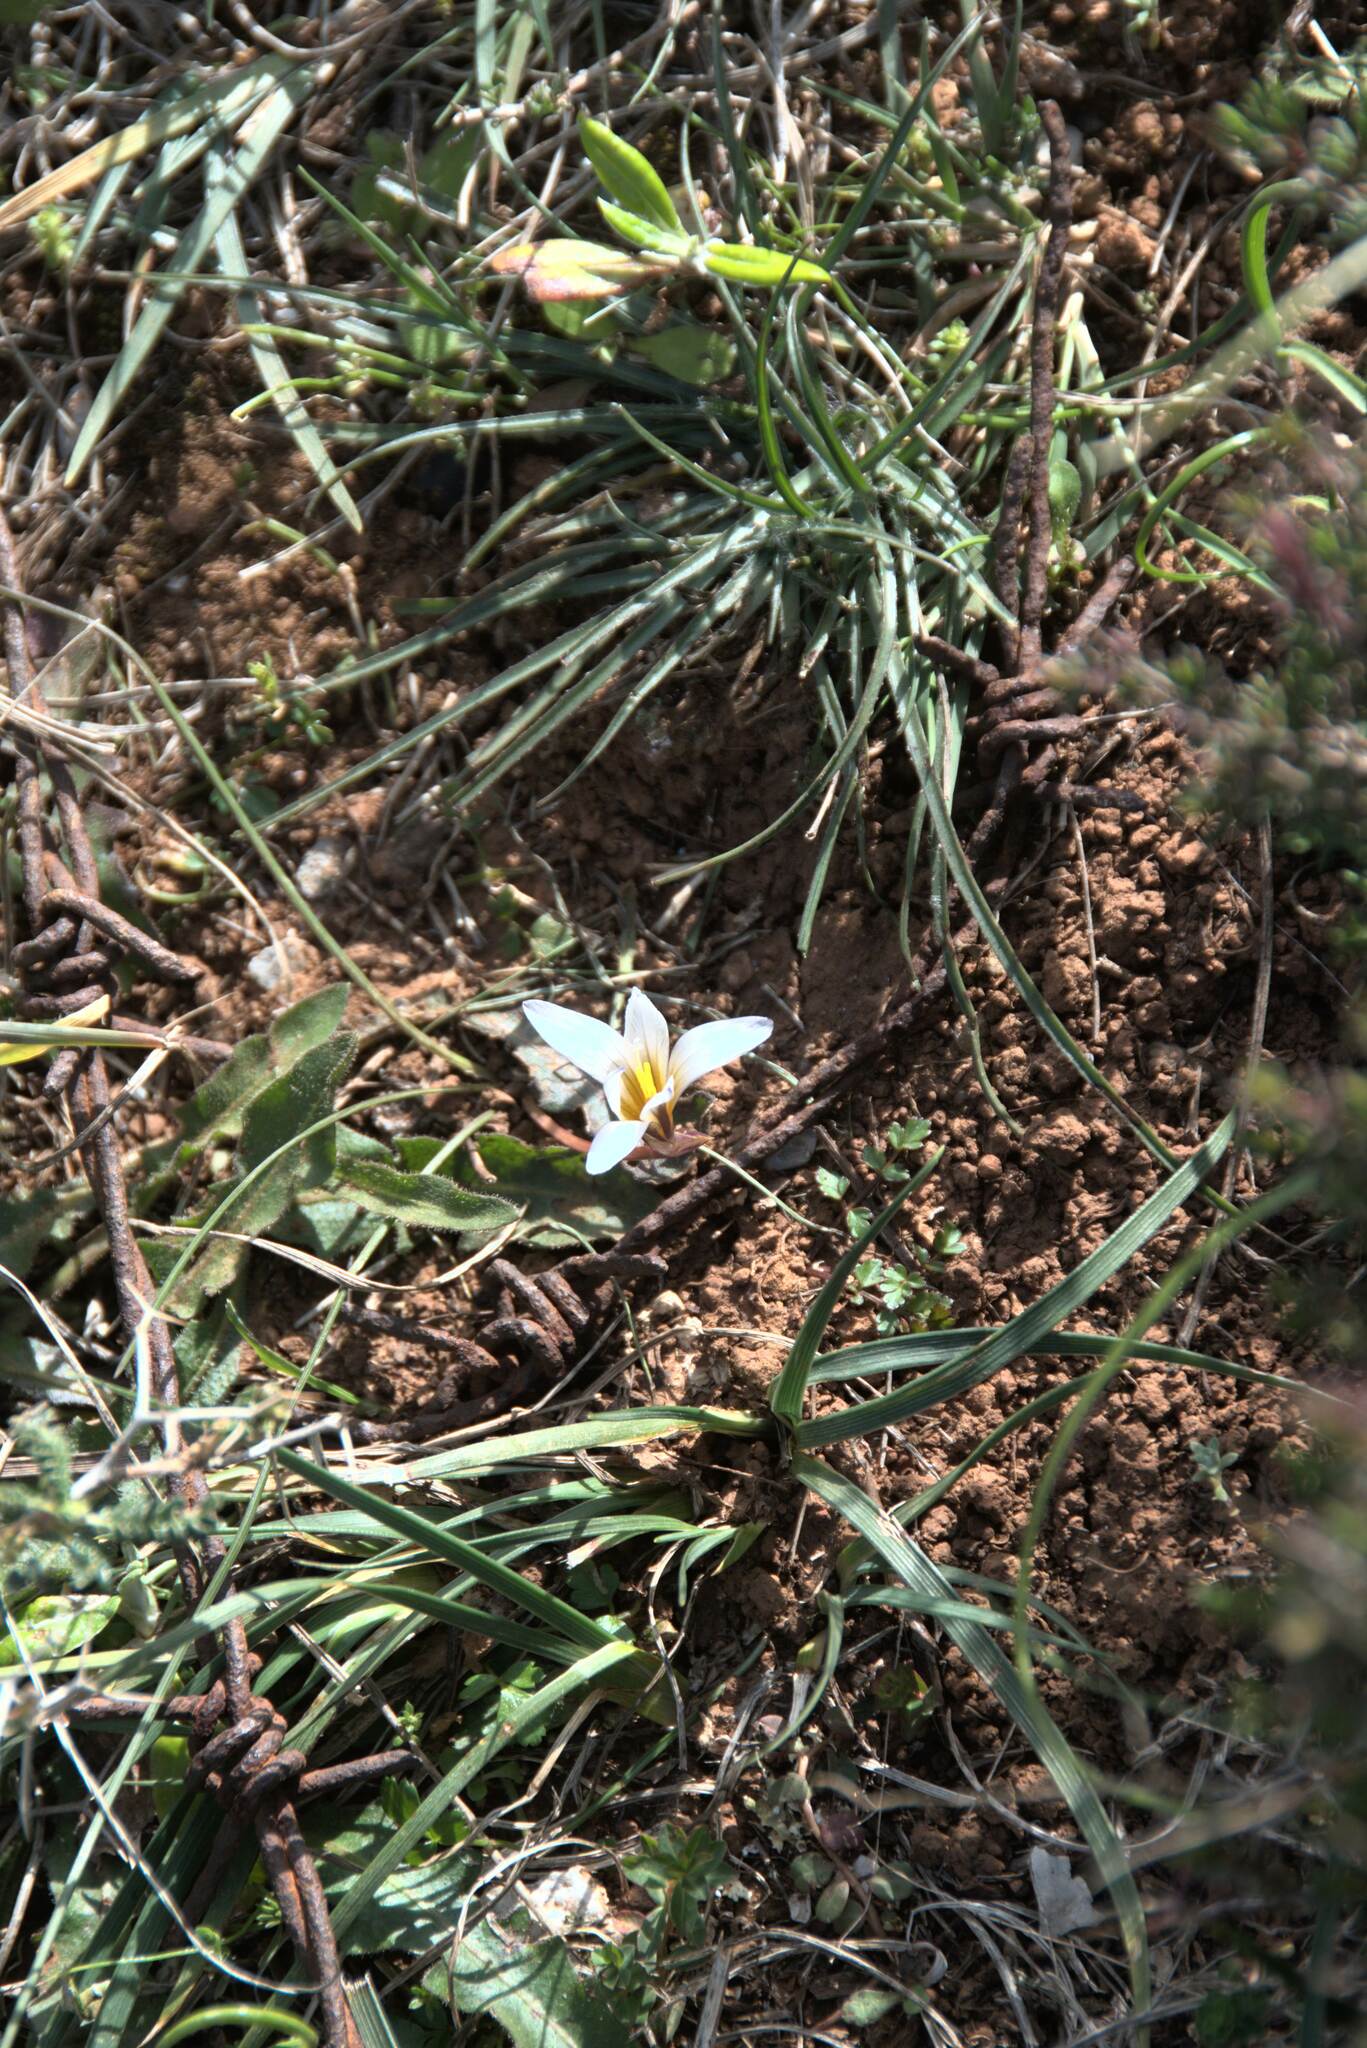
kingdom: Plantae
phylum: Tracheophyta
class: Liliopsida
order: Asparagales
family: Iridaceae
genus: Romulea
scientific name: Romulea bulbocodium
